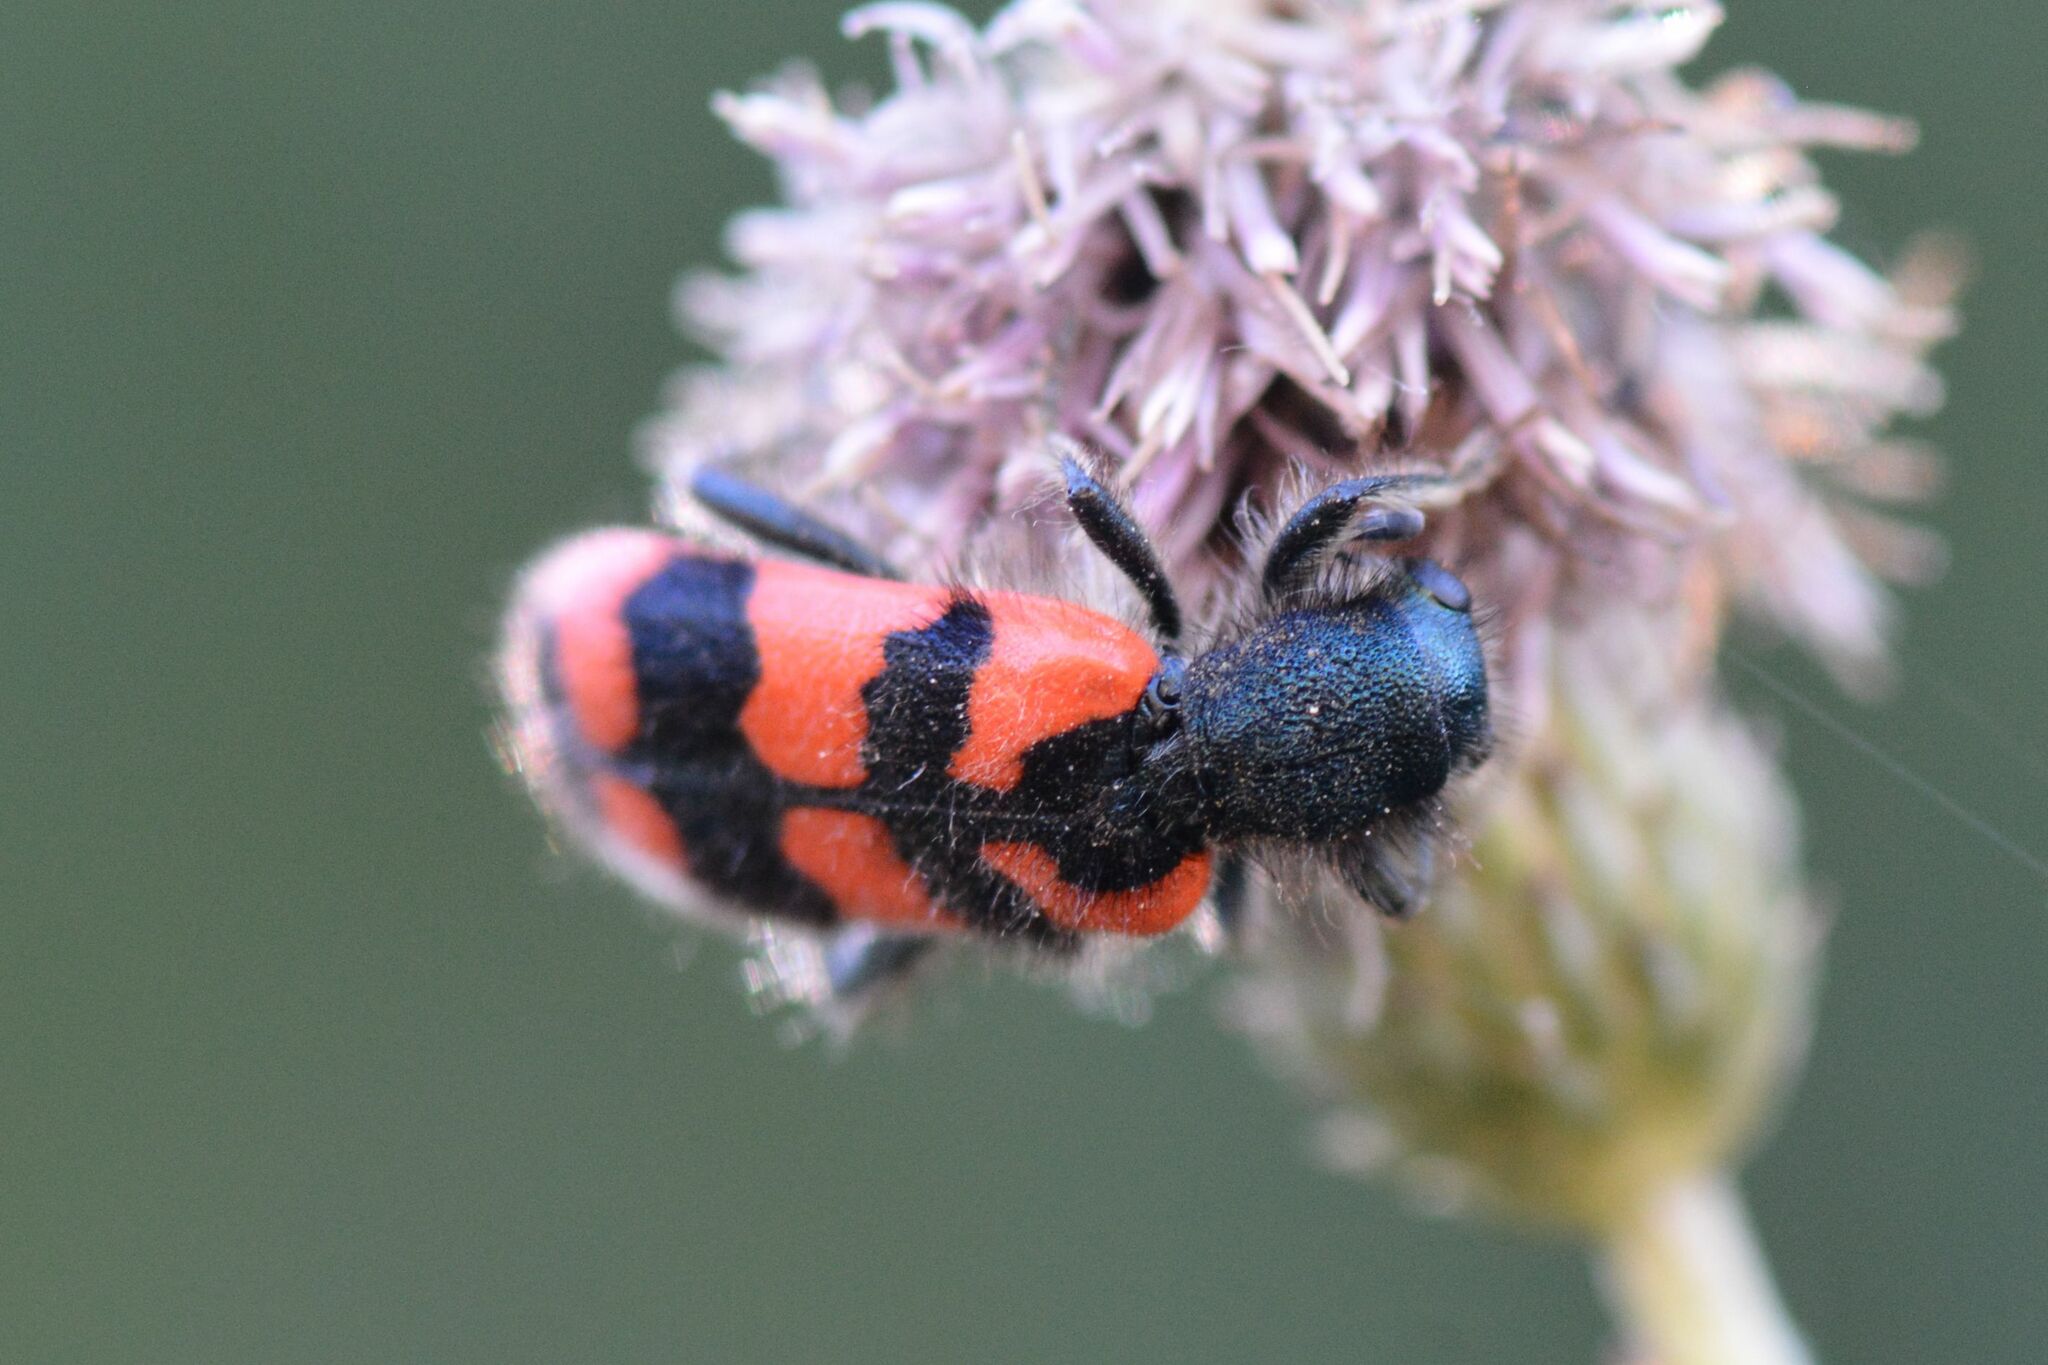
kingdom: Animalia
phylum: Arthropoda
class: Insecta
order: Coleoptera
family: Cleridae
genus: Trichodes
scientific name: Trichodes alvearius
